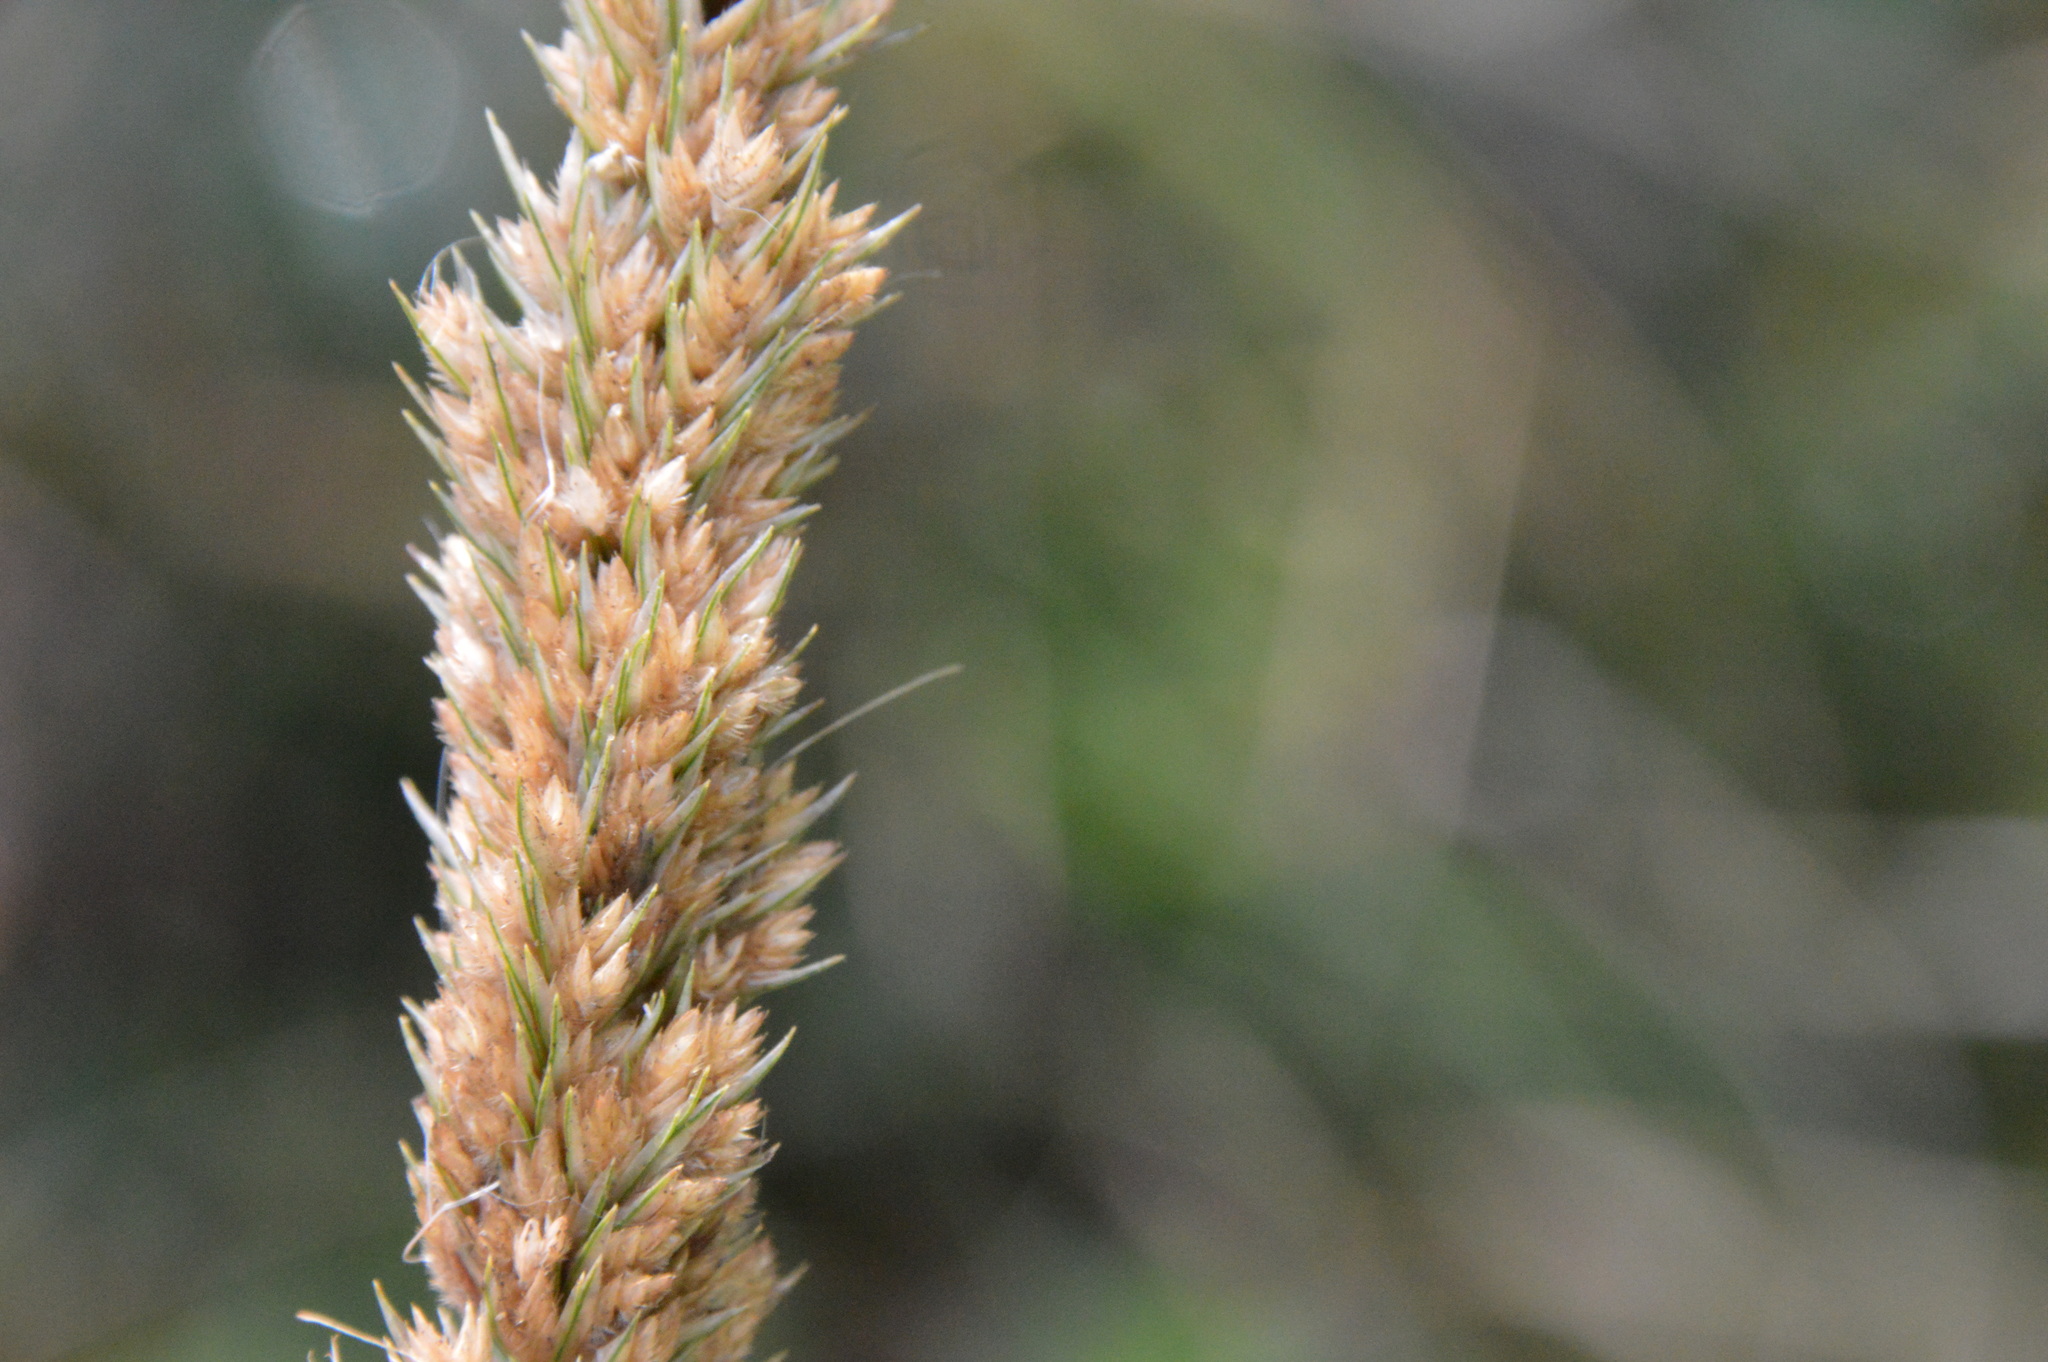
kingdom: Plantae
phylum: Tracheophyta
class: Liliopsida
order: Poales
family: Poaceae
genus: Tridens
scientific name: Tridens strictus
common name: Long-spike tridens
